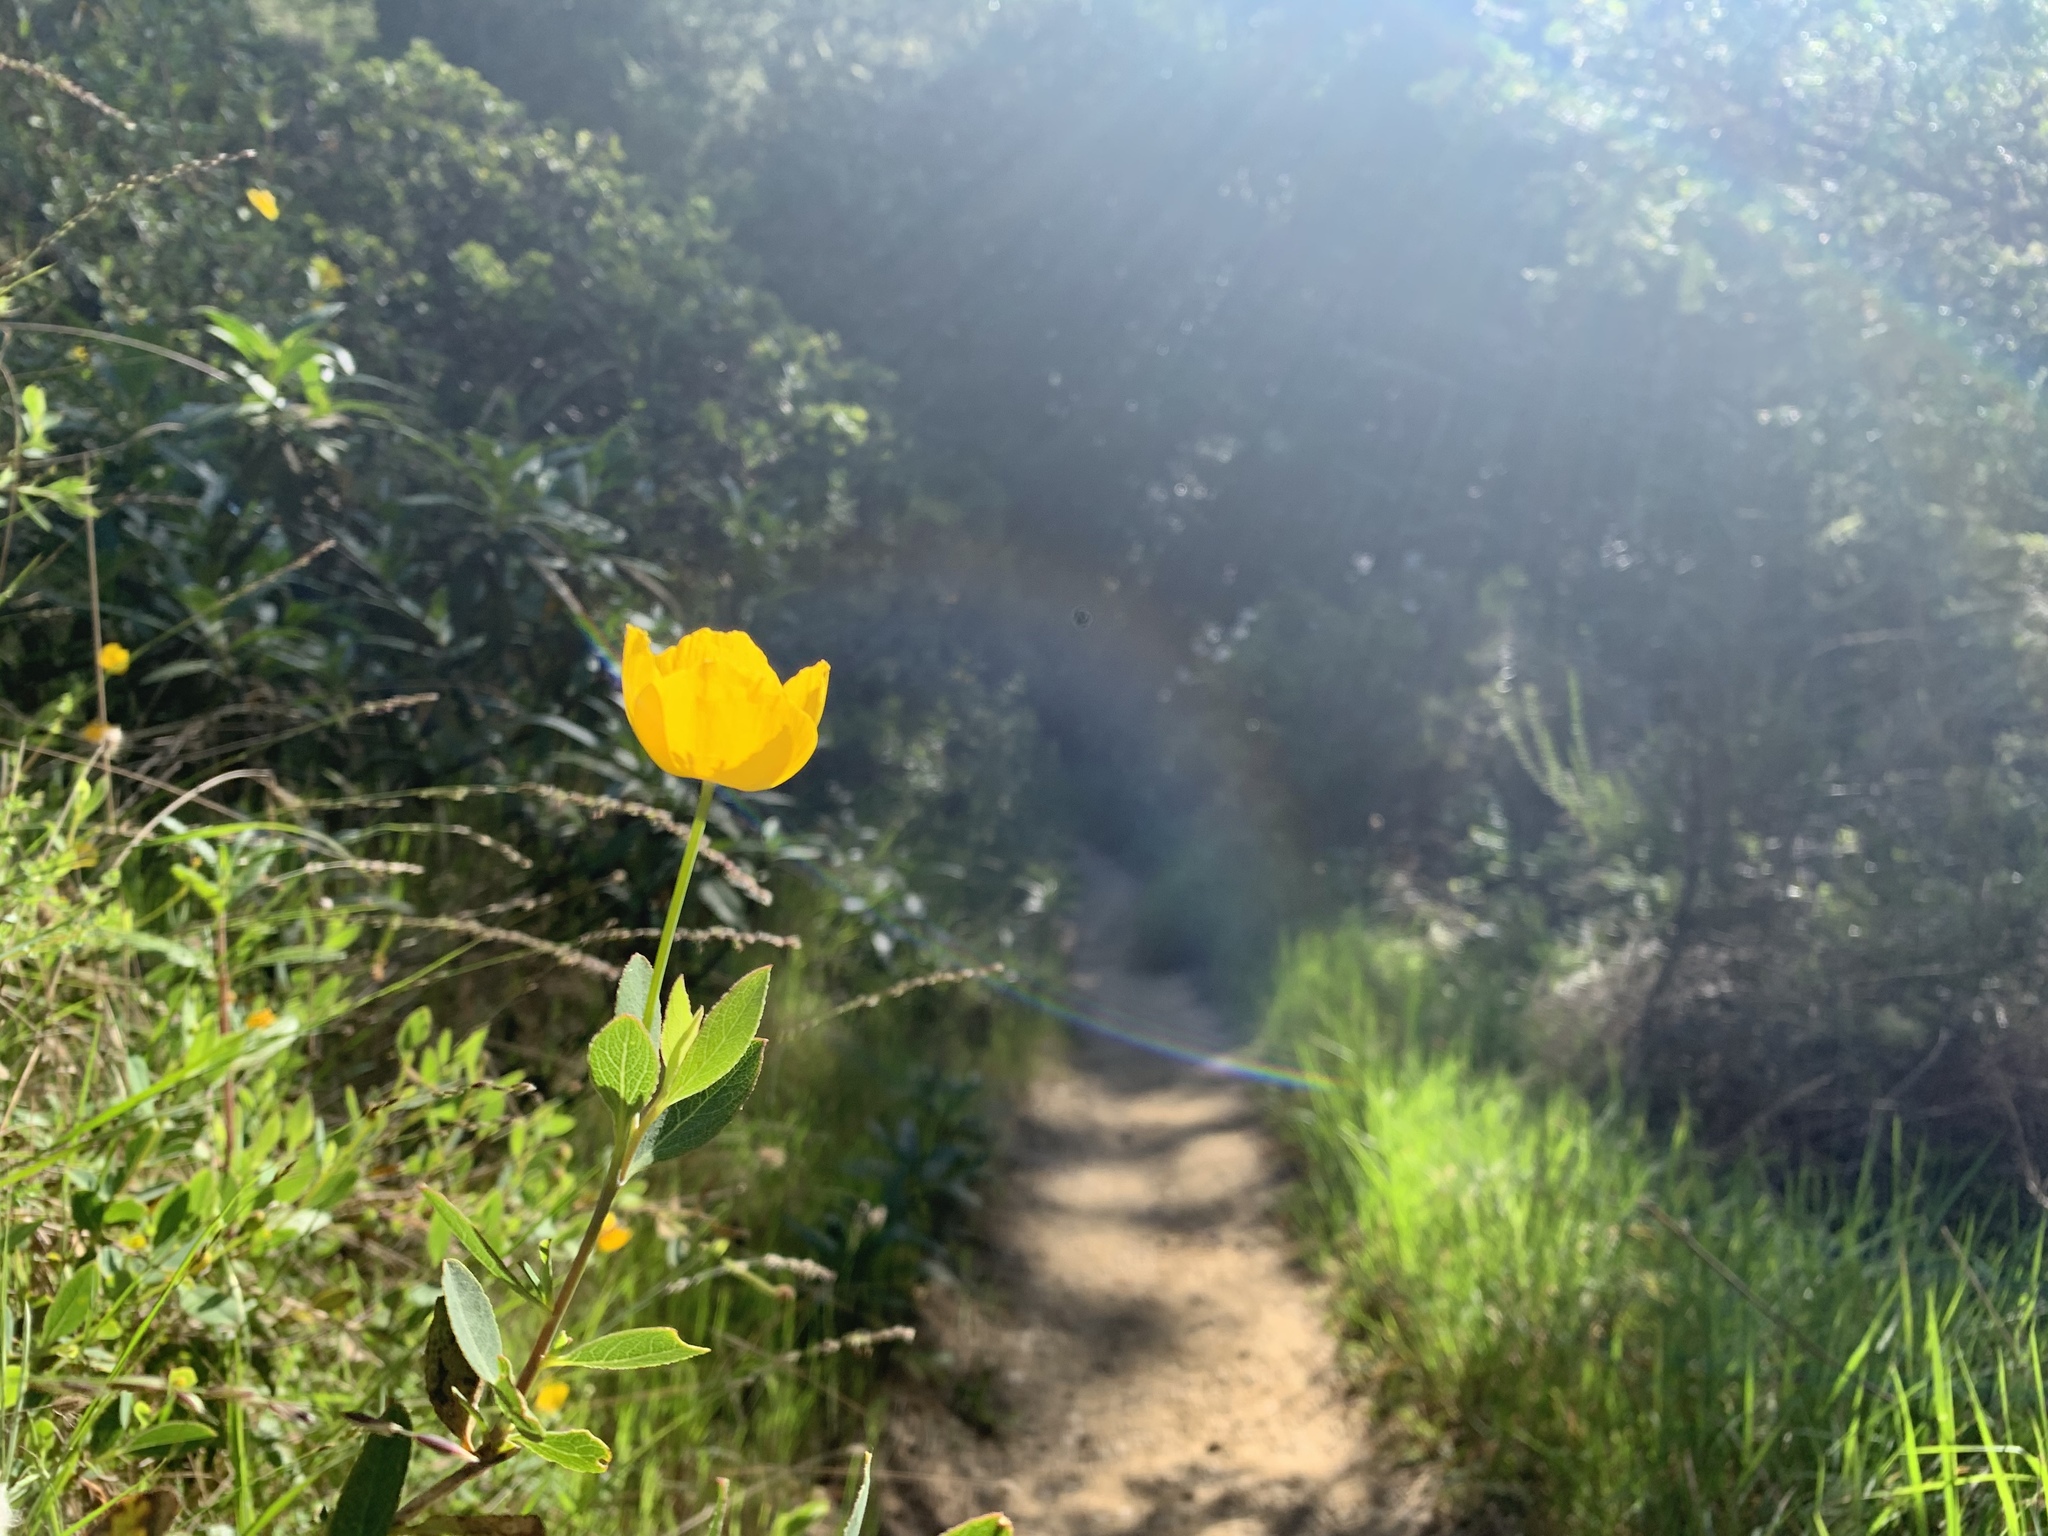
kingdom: Plantae
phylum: Tracheophyta
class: Magnoliopsida
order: Ranunculales
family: Papaveraceae
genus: Dendromecon
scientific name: Dendromecon rigida
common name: Tree poppy
